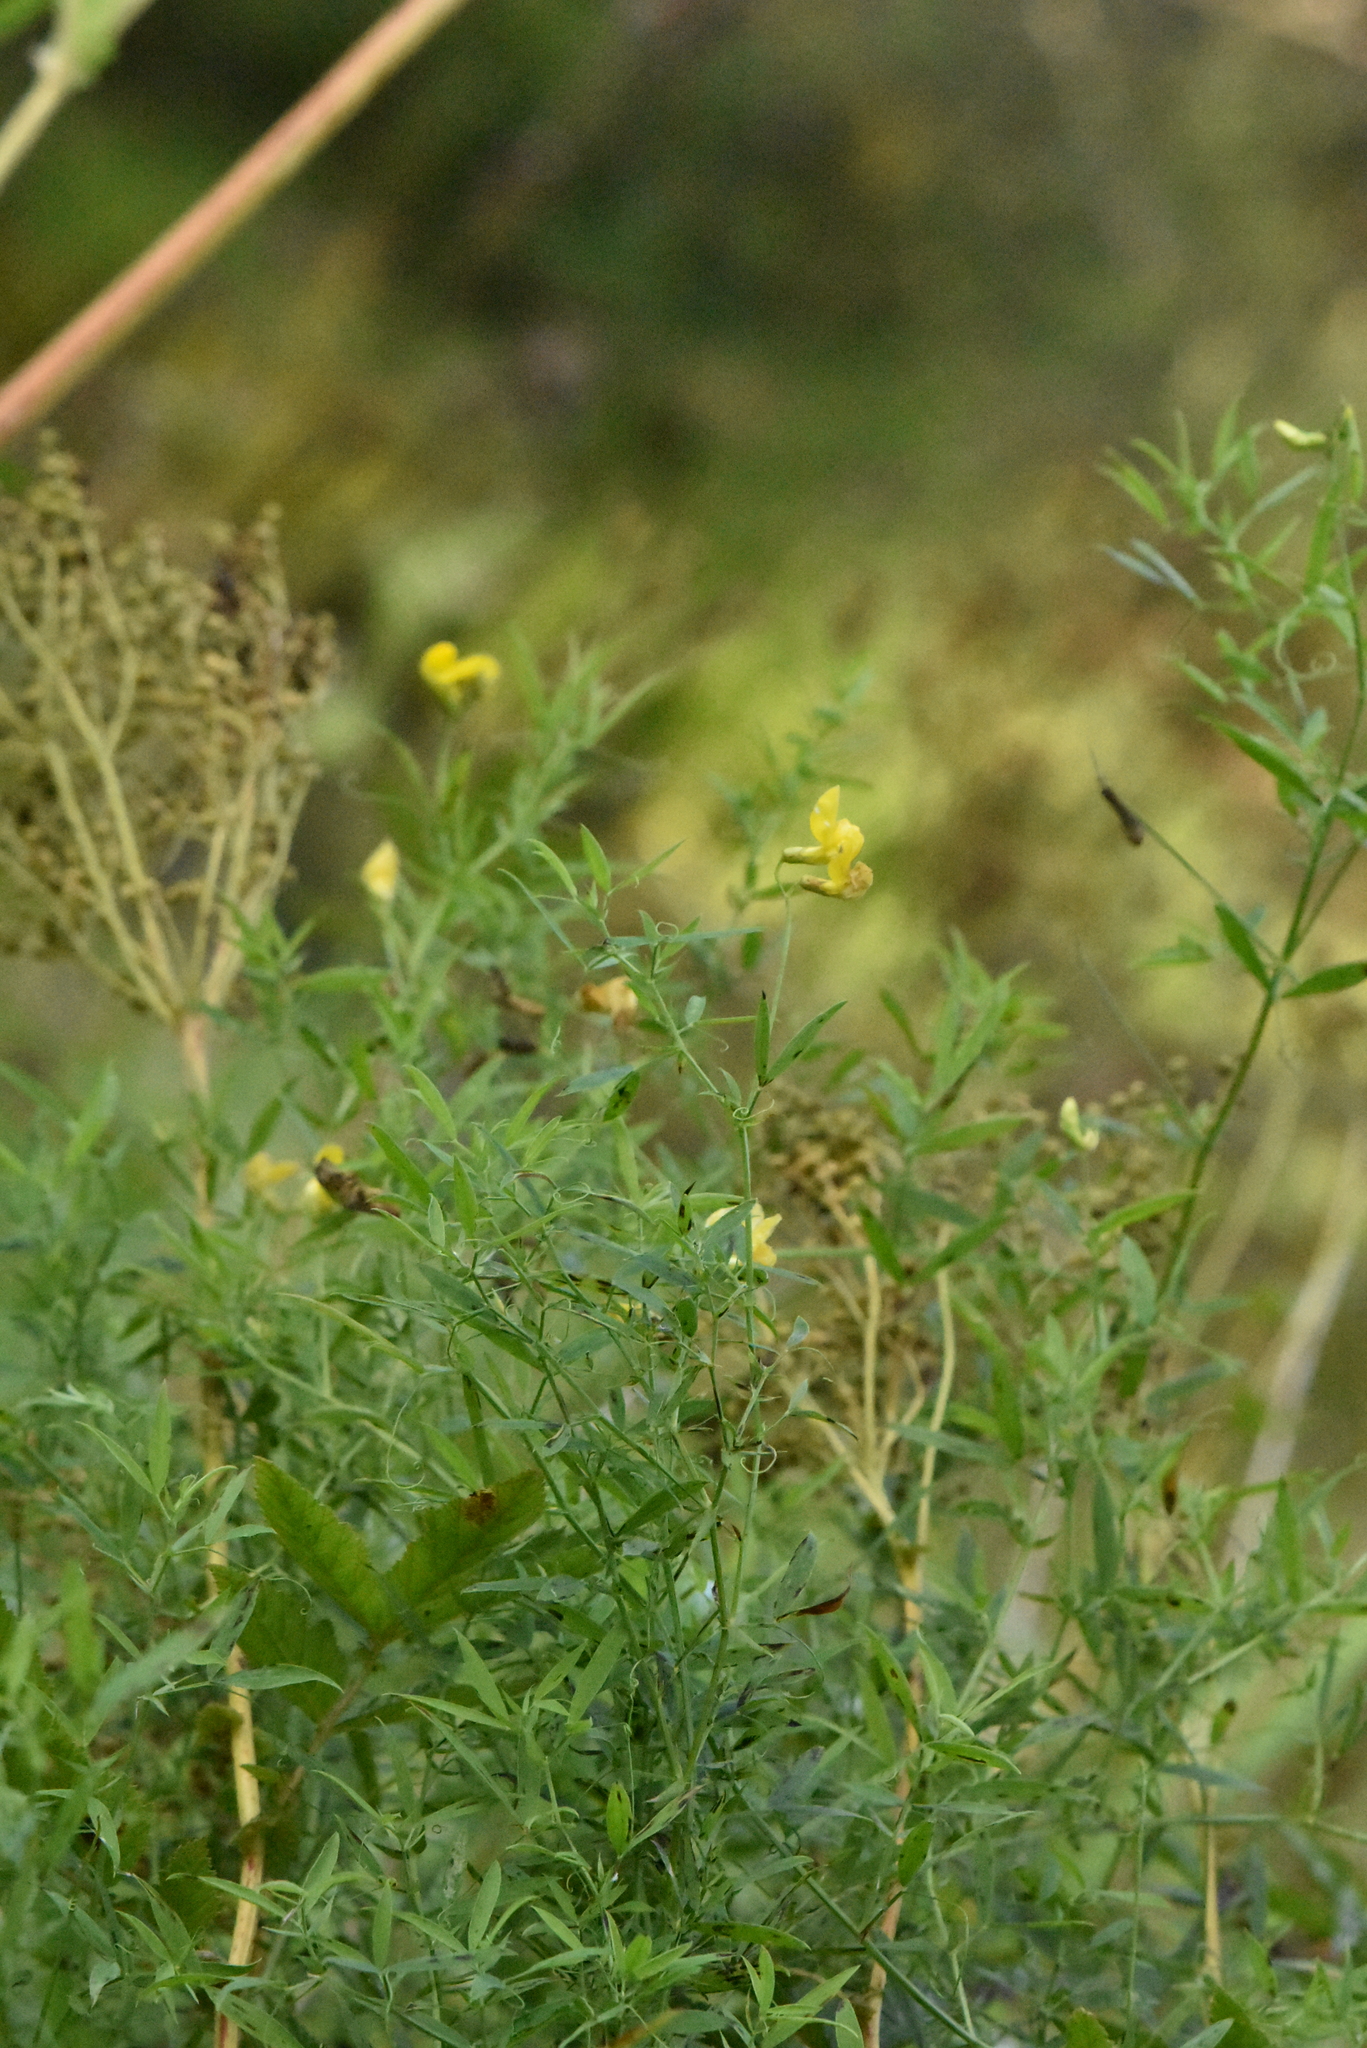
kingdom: Plantae
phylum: Tracheophyta
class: Magnoliopsida
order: Fabales
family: Fabaceae
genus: Lathyrus
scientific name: Lathyrus pratensis
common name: Meadow vetchling
